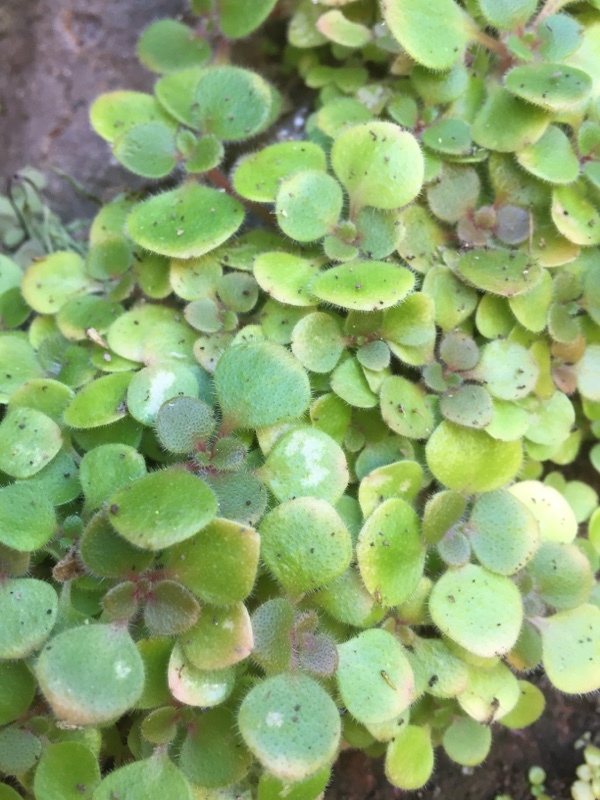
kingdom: Plantae
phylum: Tracheophyta
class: Magnoliopsida
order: Saxifragales
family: Crassulaceae
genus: Aichryson
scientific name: Aichryson laxum
